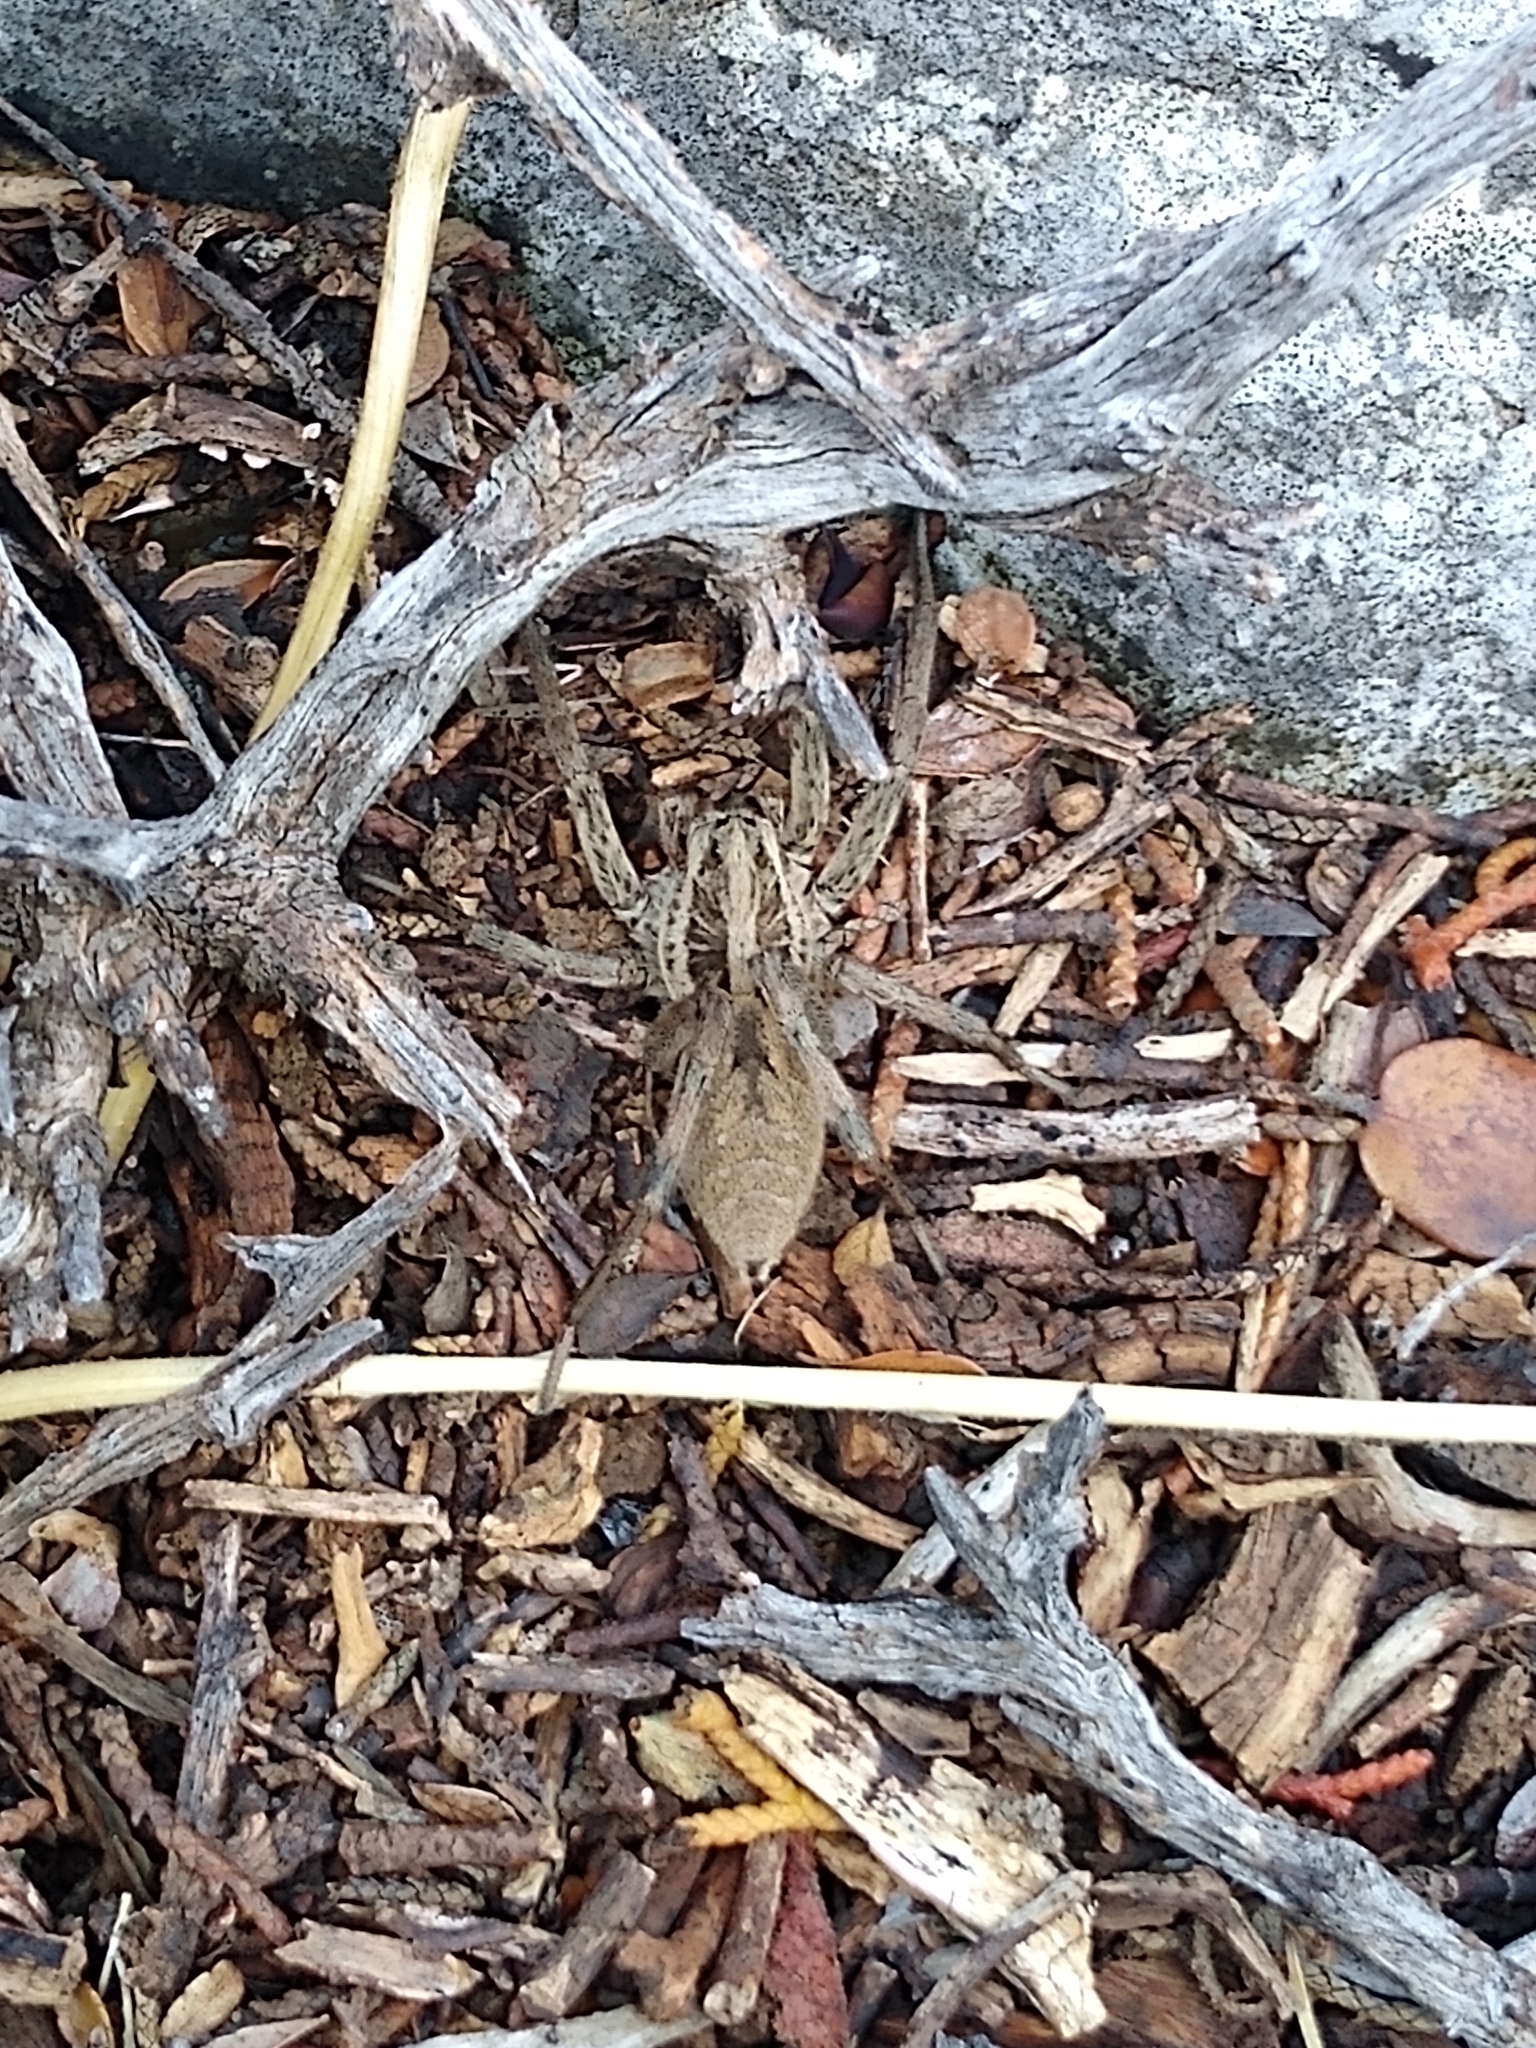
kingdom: Animalia
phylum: Arthropoda
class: Arachnida
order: Araneae
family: Lycosidae
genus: Hogna
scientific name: Hogna radiata
